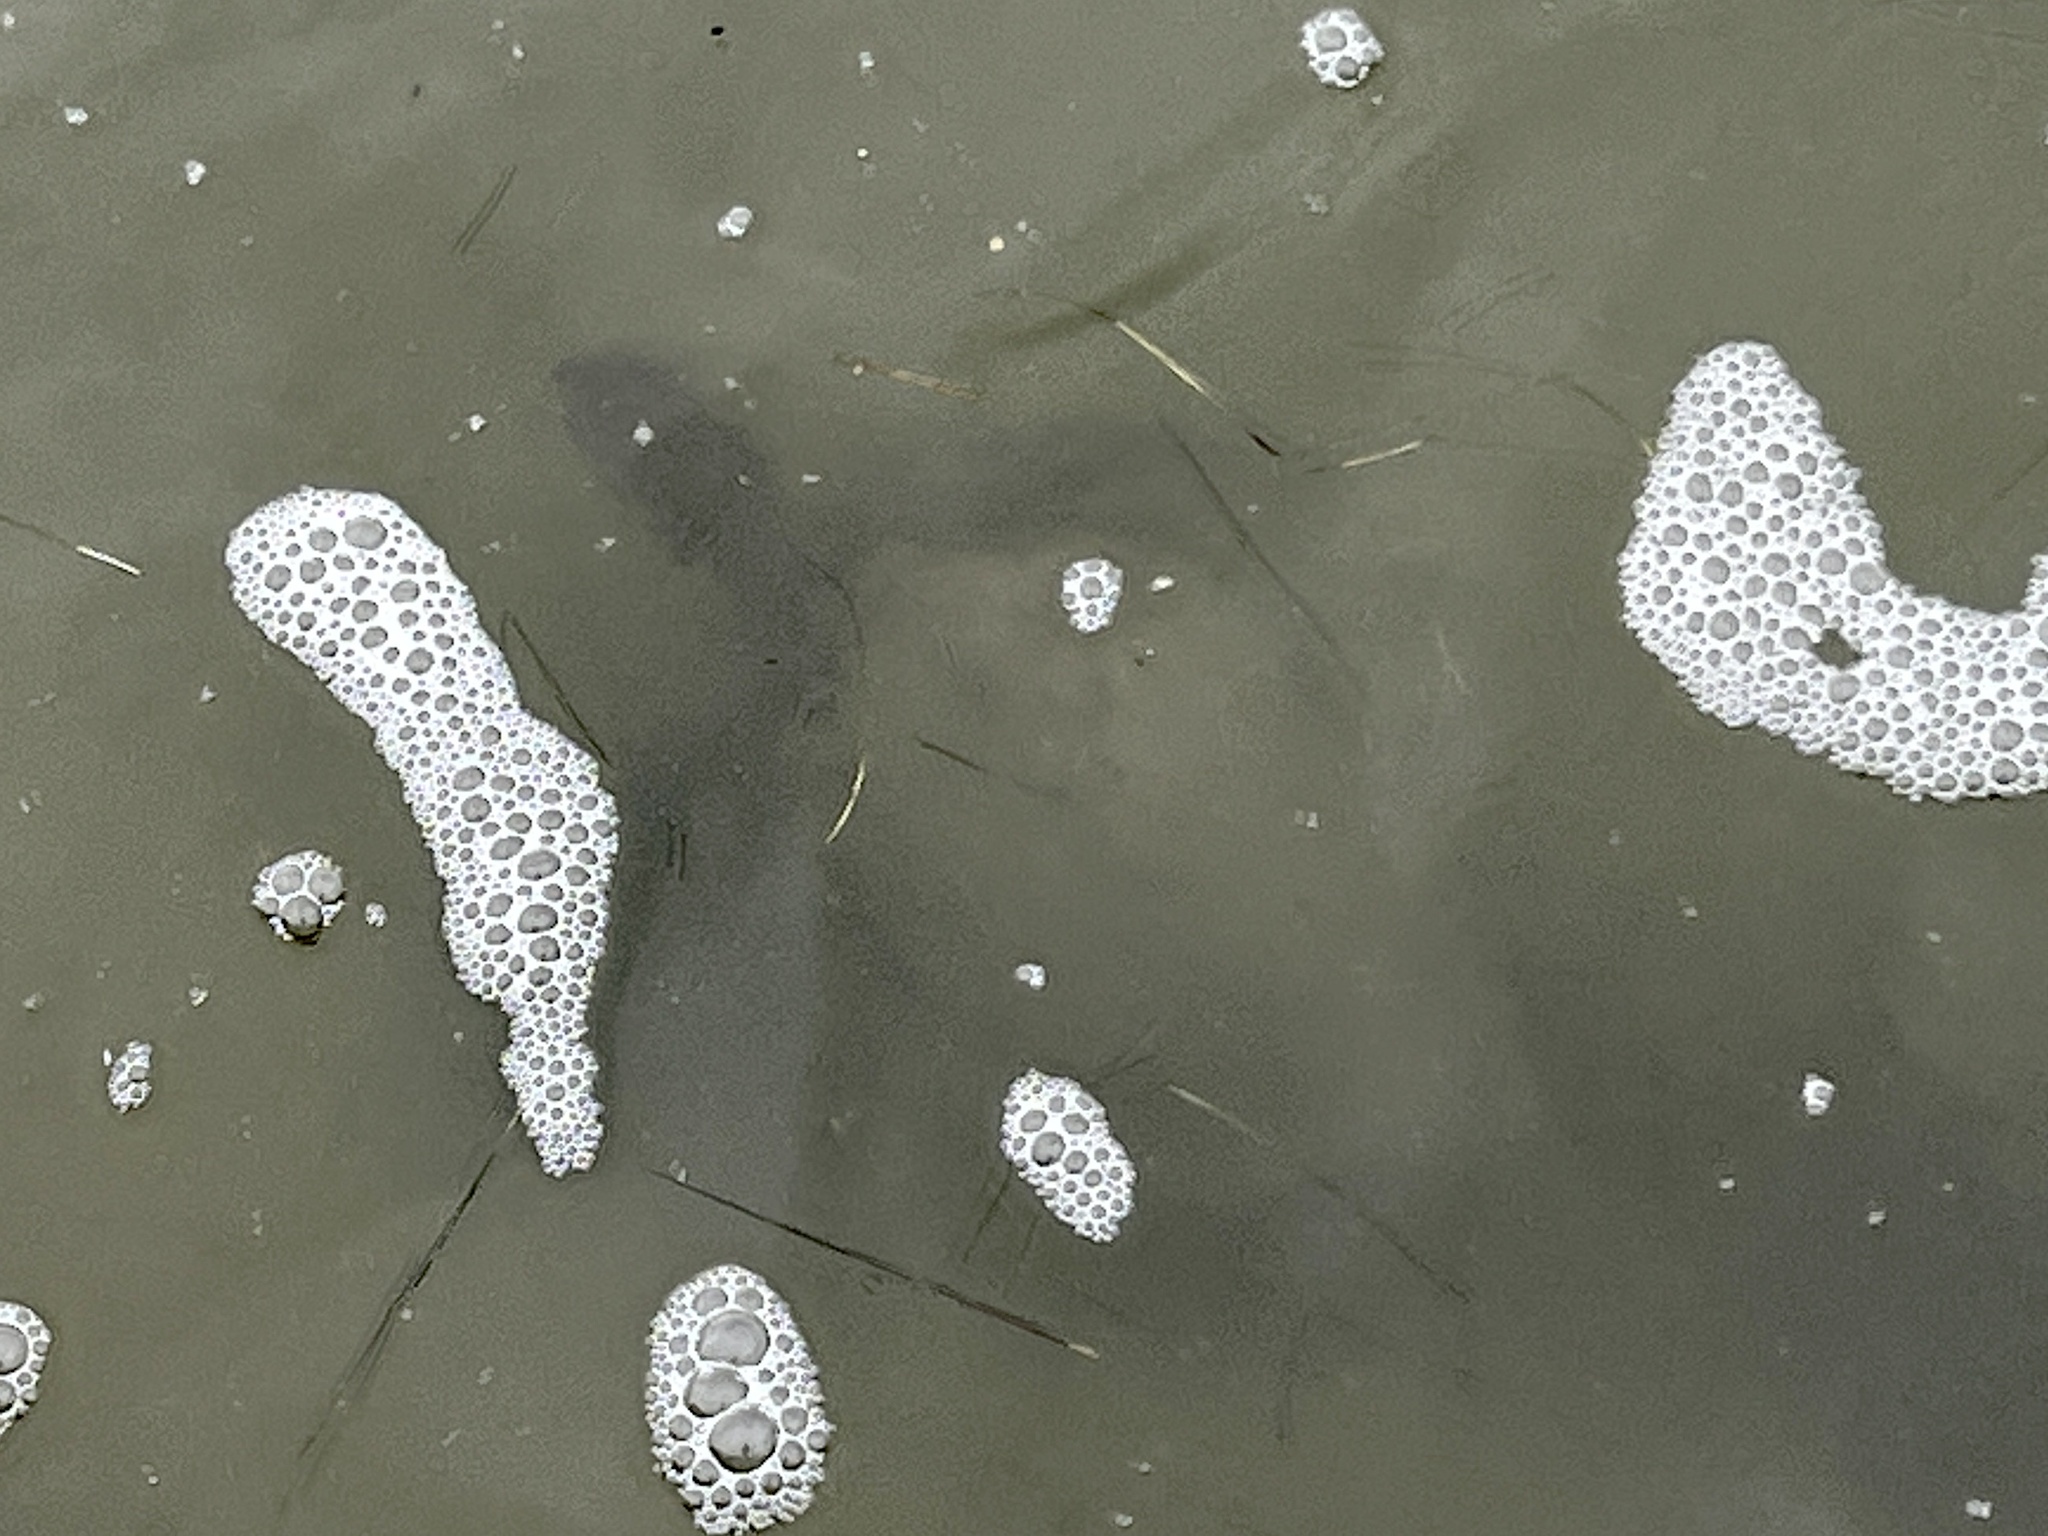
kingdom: Animalia
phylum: Chordata
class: Testudines
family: Cheloniidae
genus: Chelonia
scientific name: Chelonia mydas
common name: Green turtle
